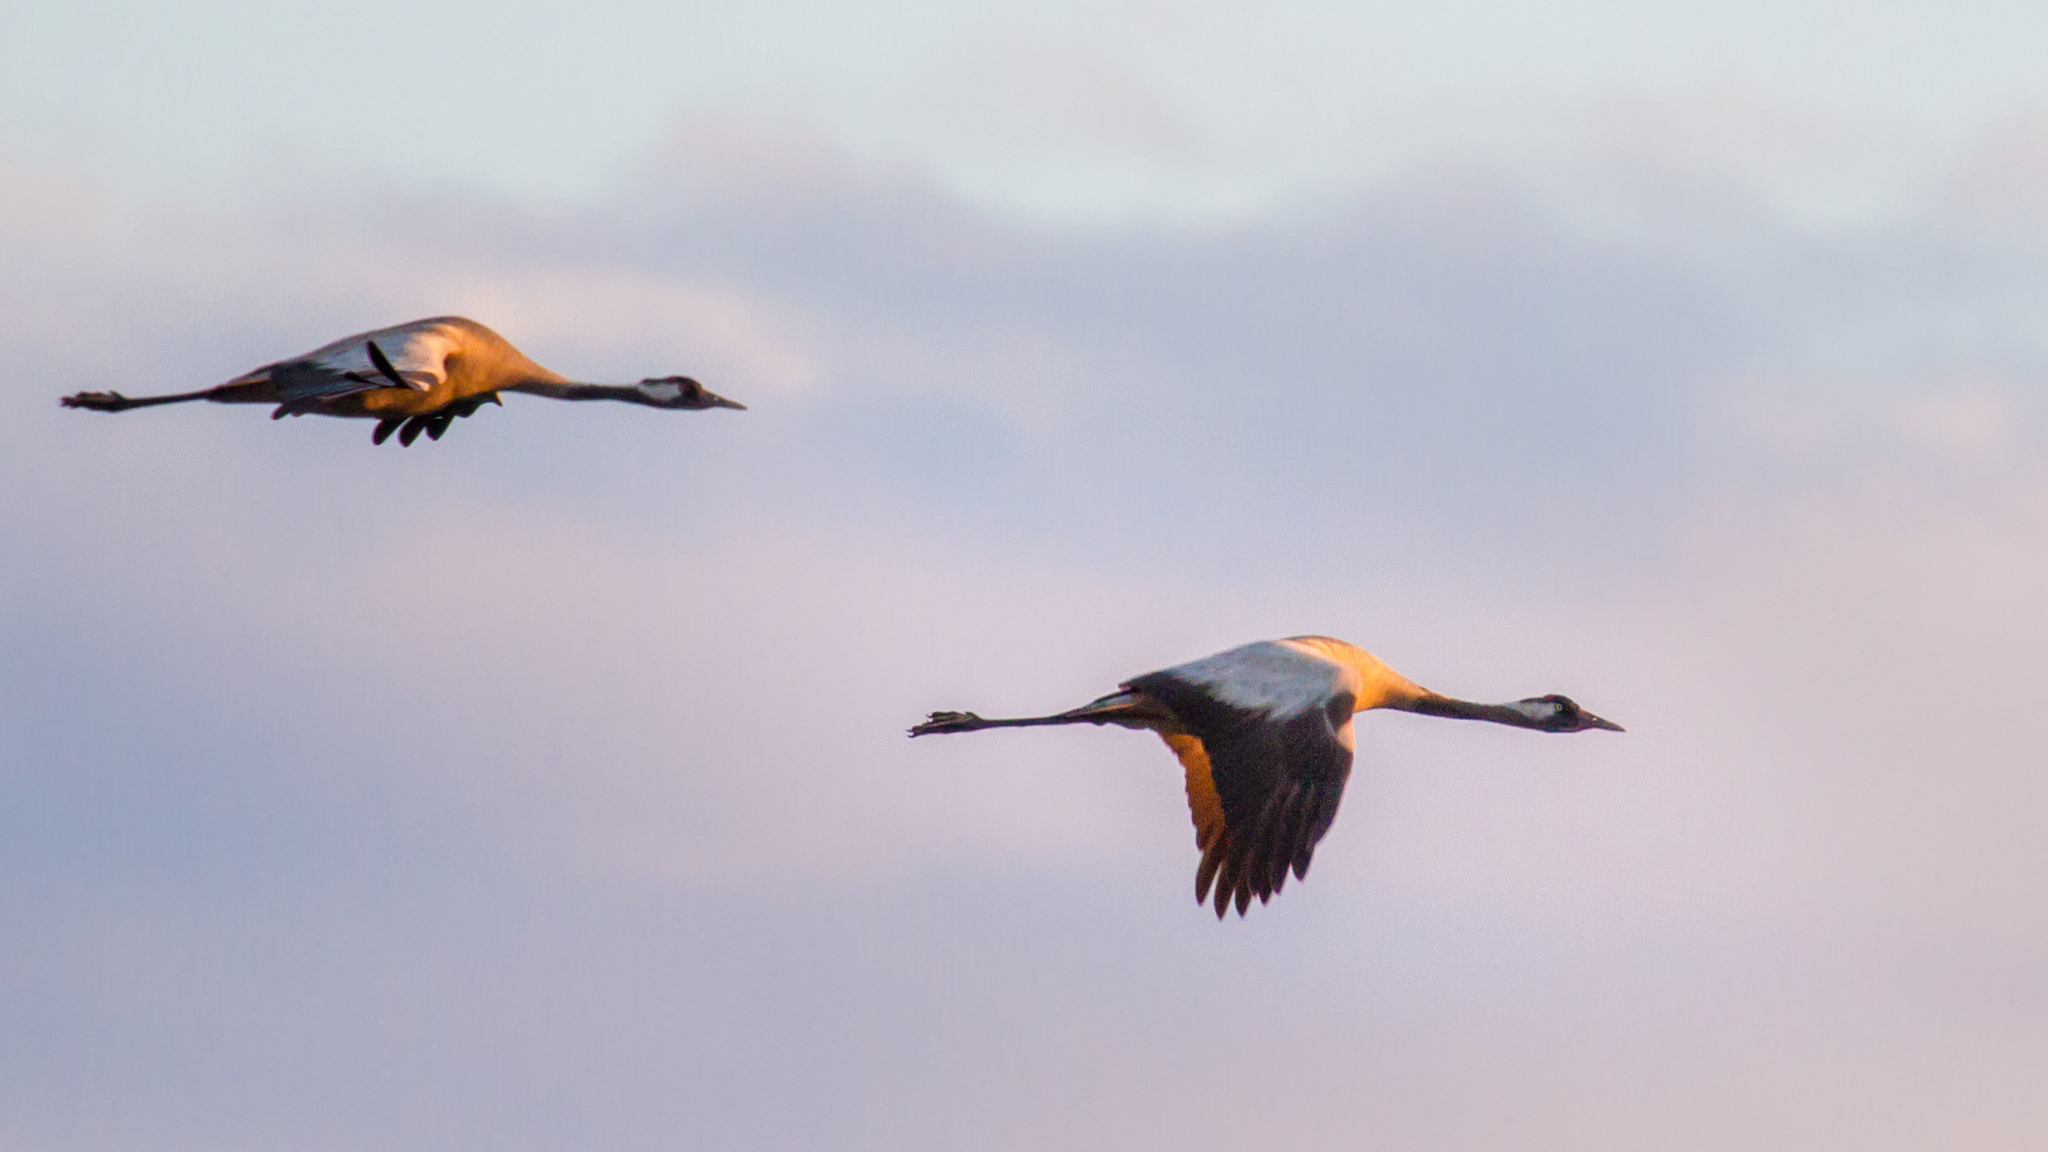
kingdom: Animalia
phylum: Chordata
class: Aves
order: Gruiformes
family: Gruidae
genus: Grus
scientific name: Grus grus
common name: Common crane
